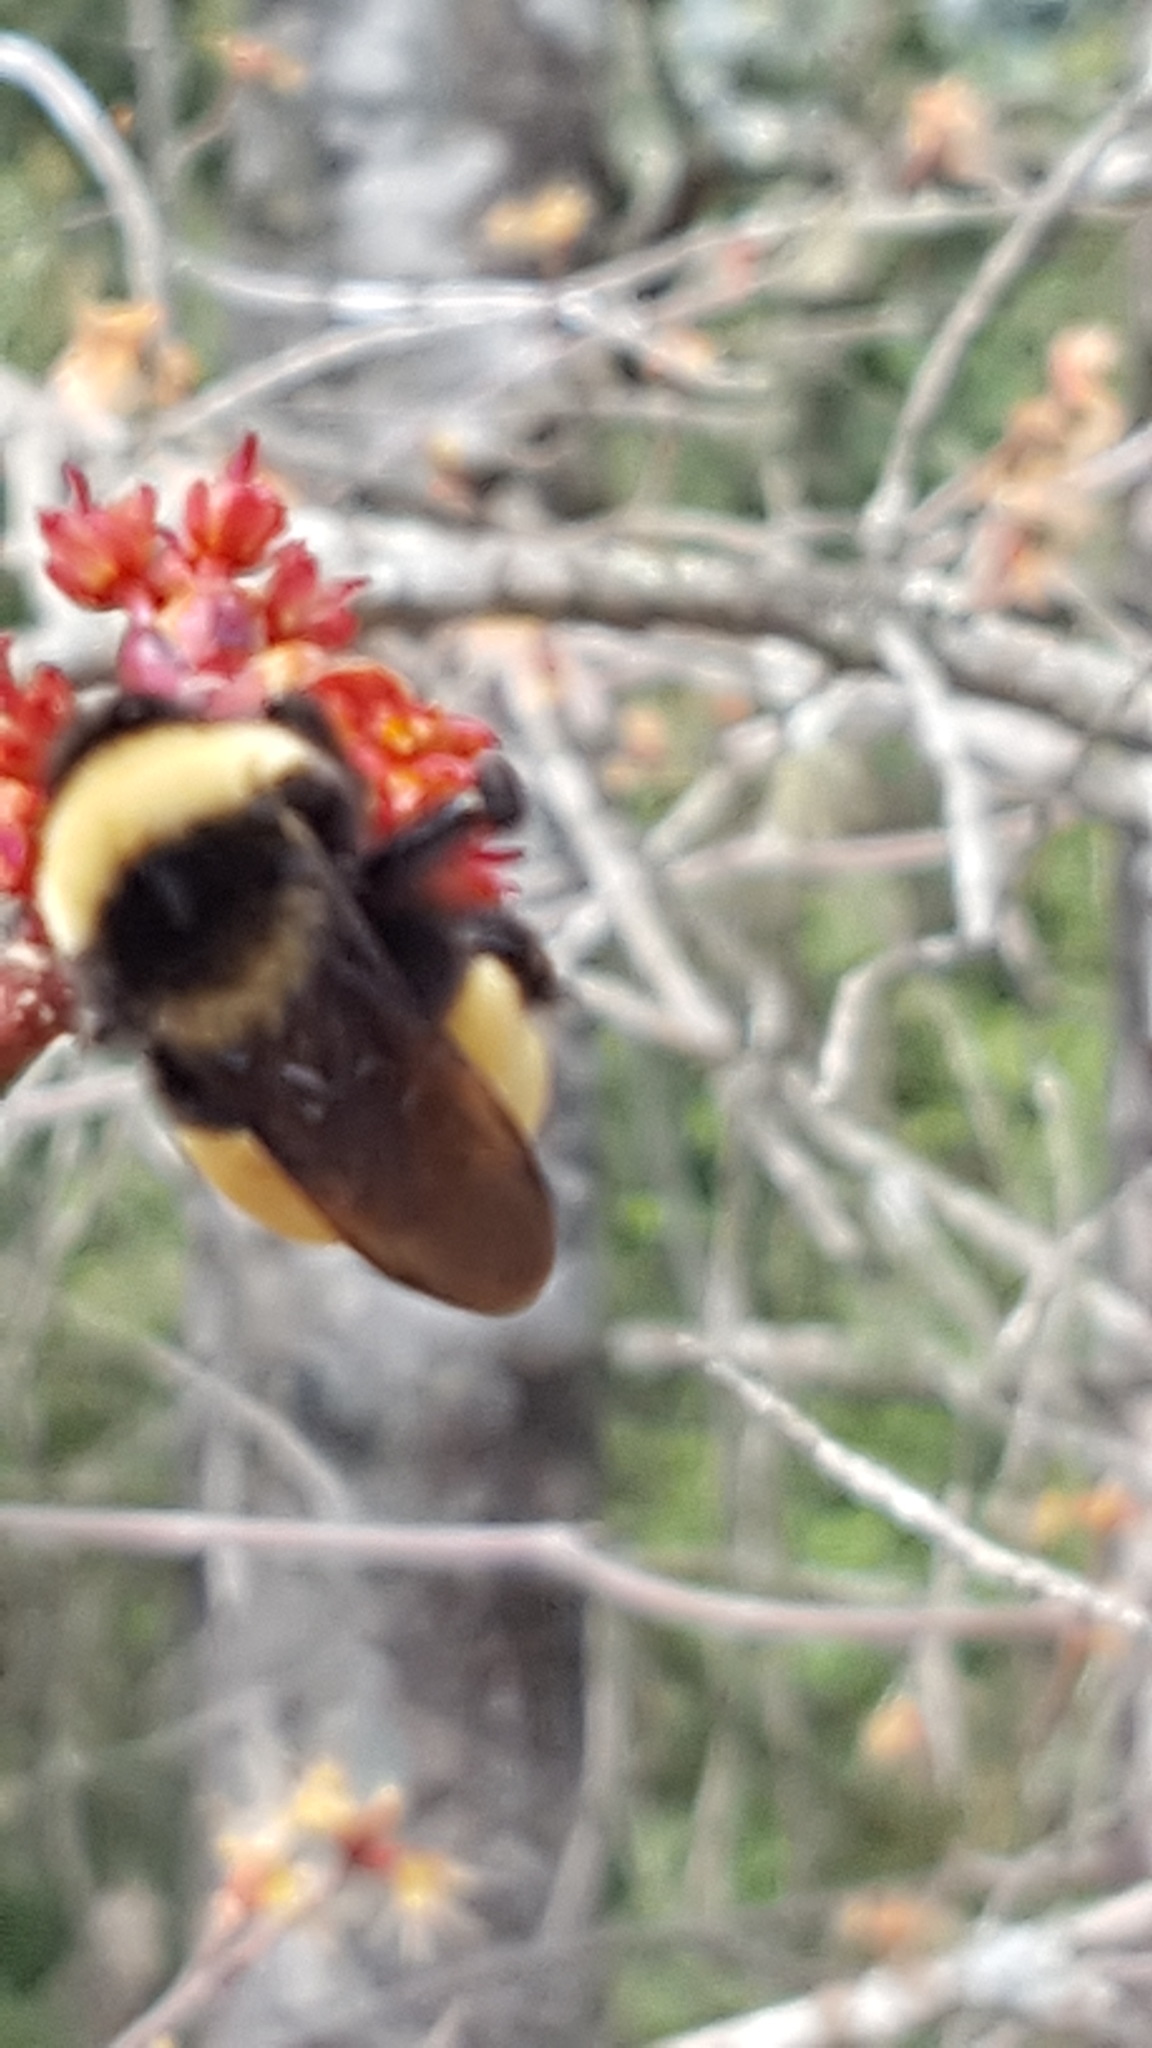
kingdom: Animalia
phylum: Arthropoda
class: Insecta
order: Hymenoptera
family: Apidae
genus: Bombus
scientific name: Bombus terricola
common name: Yellow-banded bumble bee
